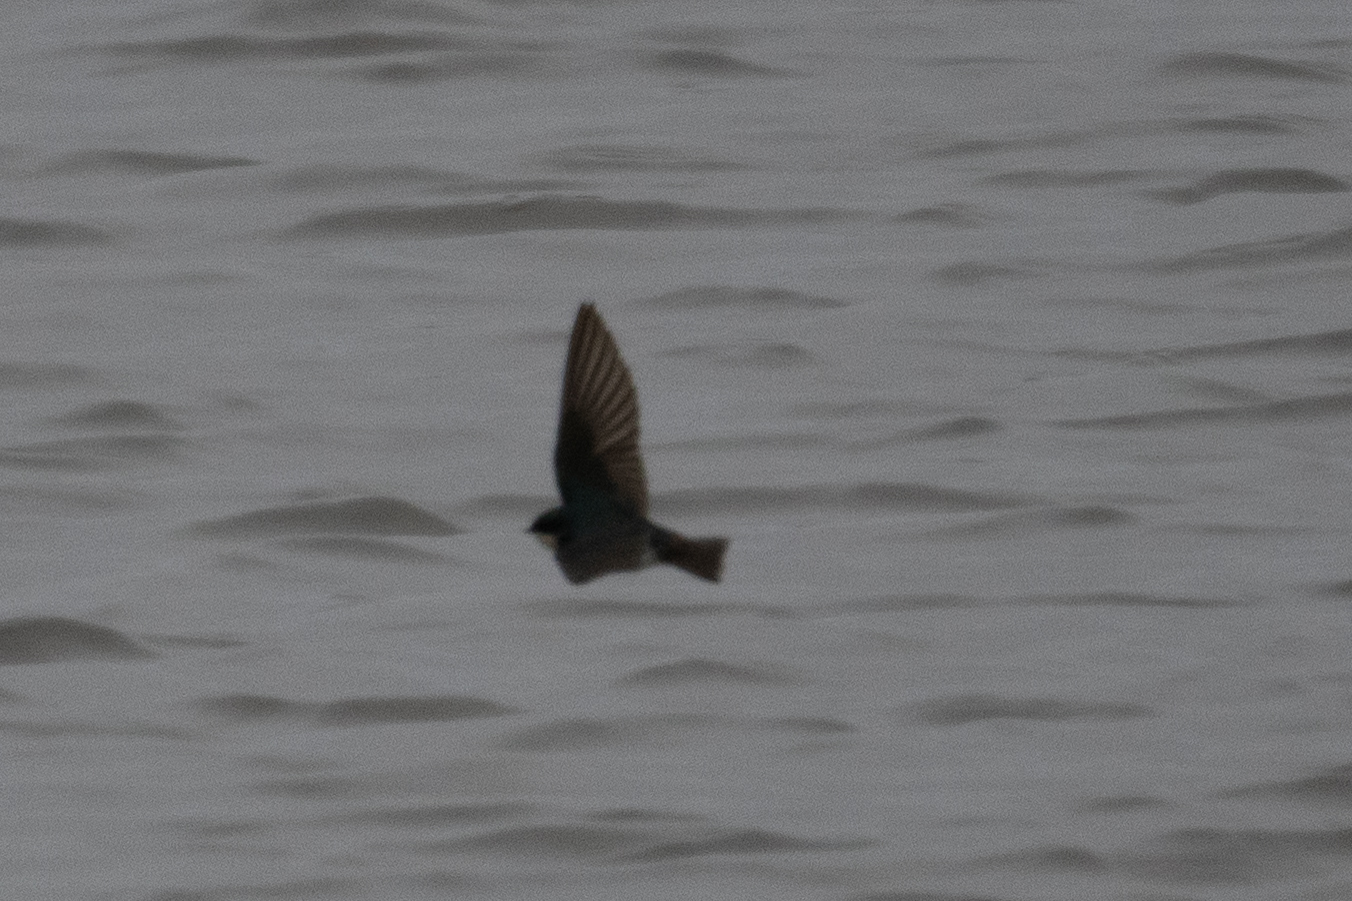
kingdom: Animalia
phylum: Chordata
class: Aves
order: Passeriformes
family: Hirundinidae
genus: Tachycineta
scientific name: Tachycineta bicolor
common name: Tree swallow
